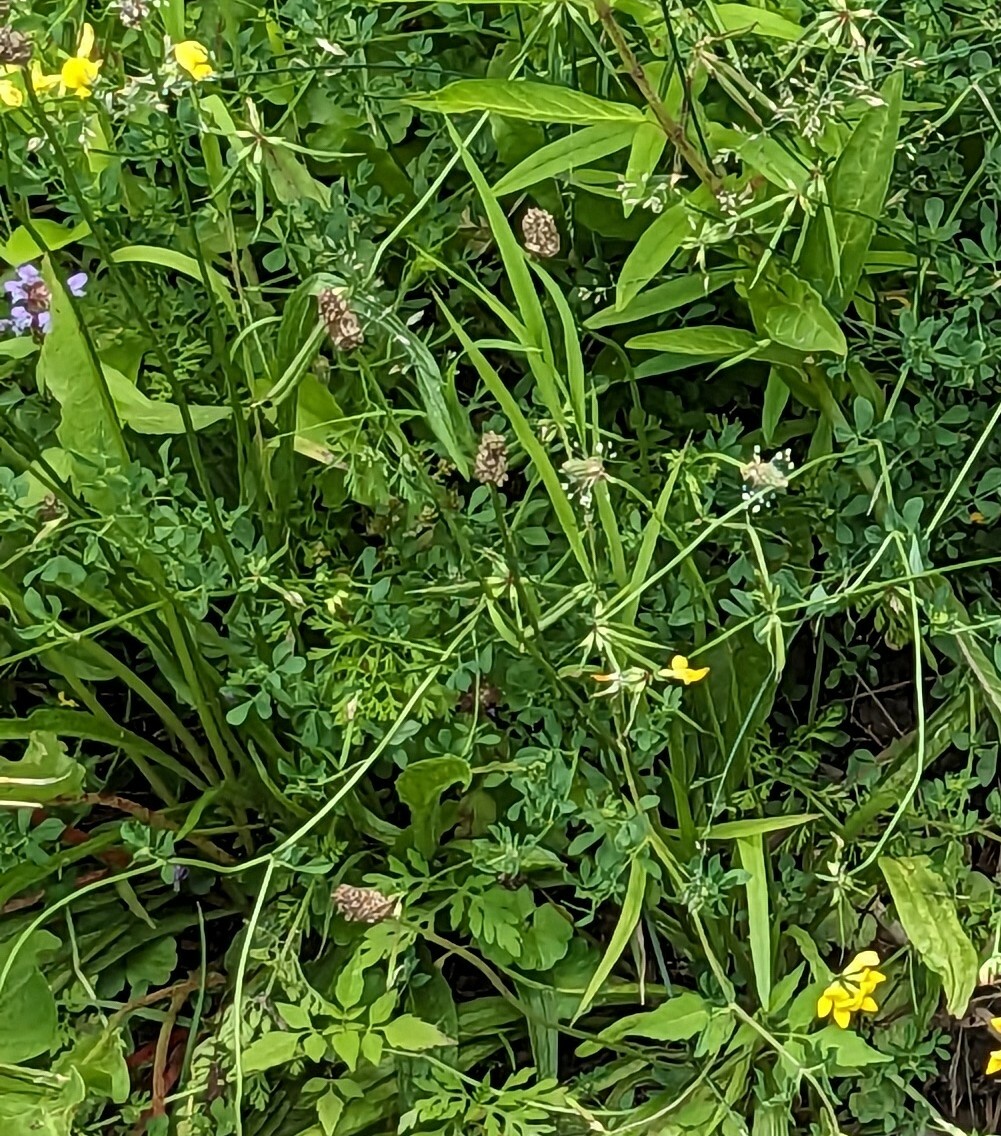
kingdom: Plantae
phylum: Tracheophyta
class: Magnoliopsida
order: Lamiales
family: Plantaginaceae
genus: Plantago
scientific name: Plantago lanceolata
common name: Ribwort plantain
